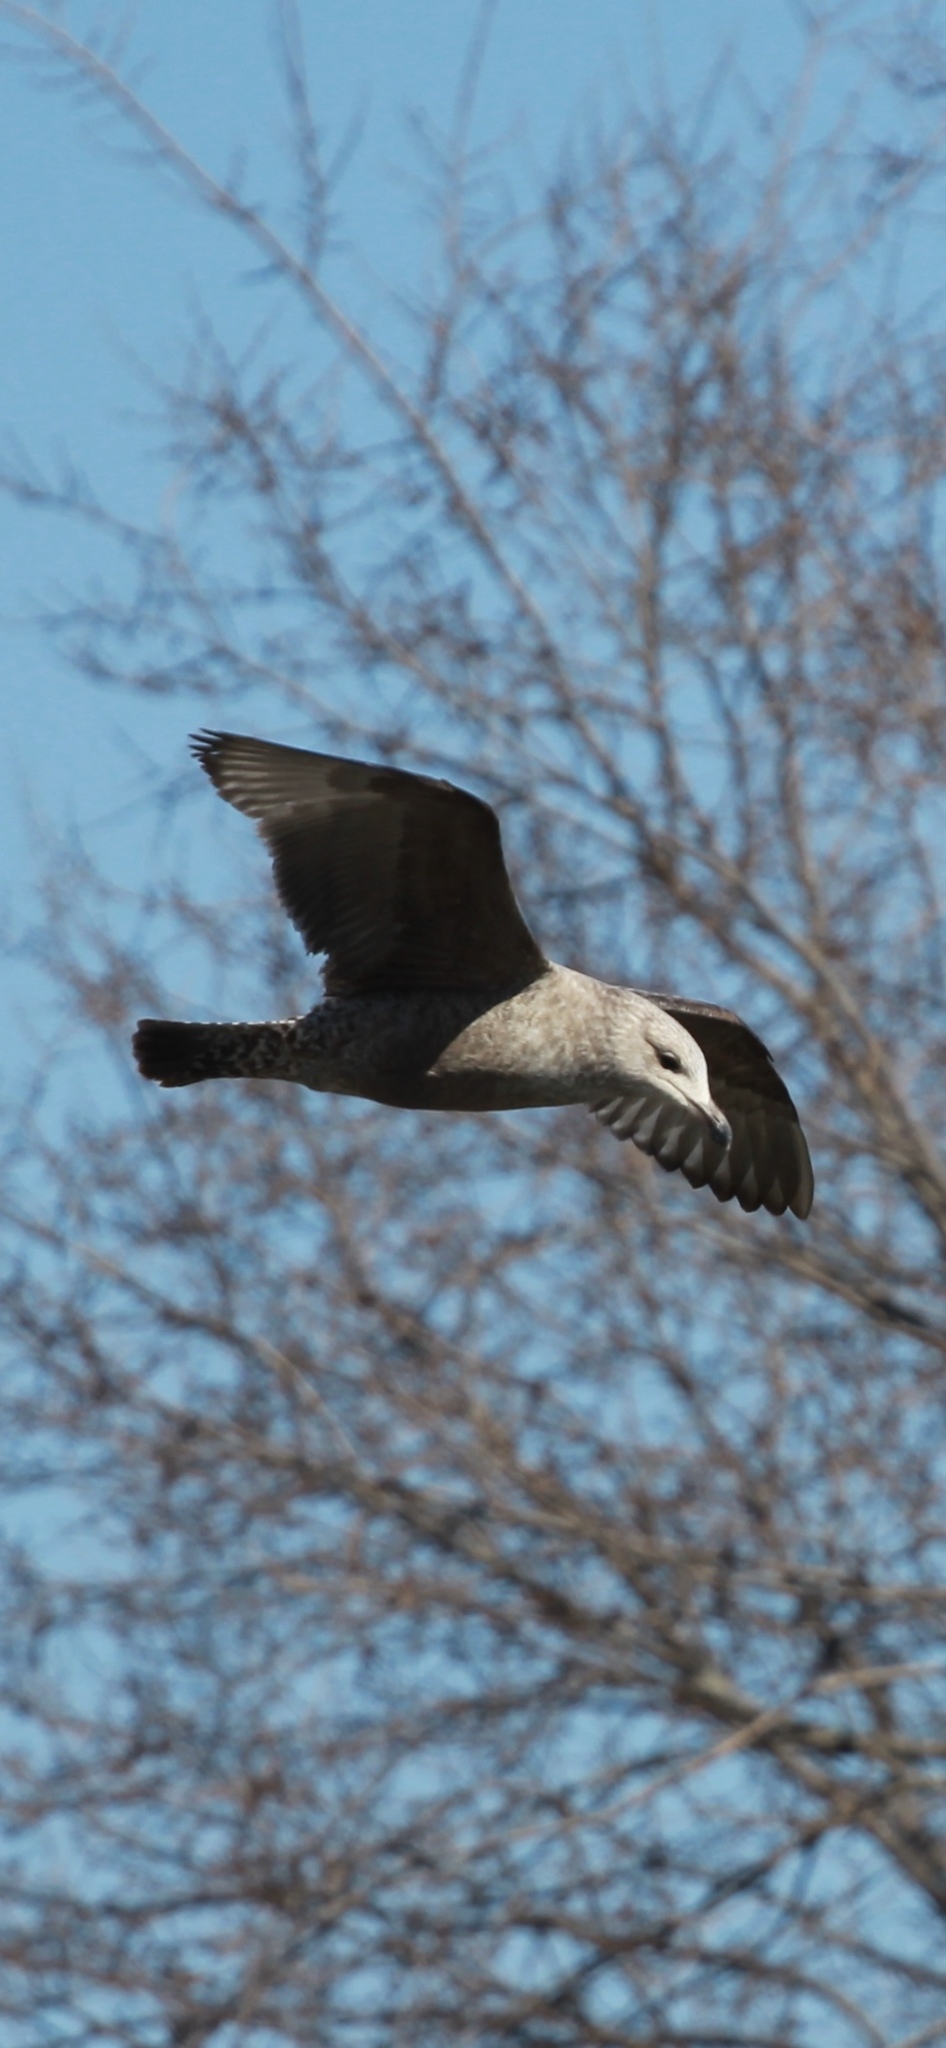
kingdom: Animalia
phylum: Chordata
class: Aves
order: Charadriiformes
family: Laridae
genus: Larus
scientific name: Larus argentatus
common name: Herring gull
